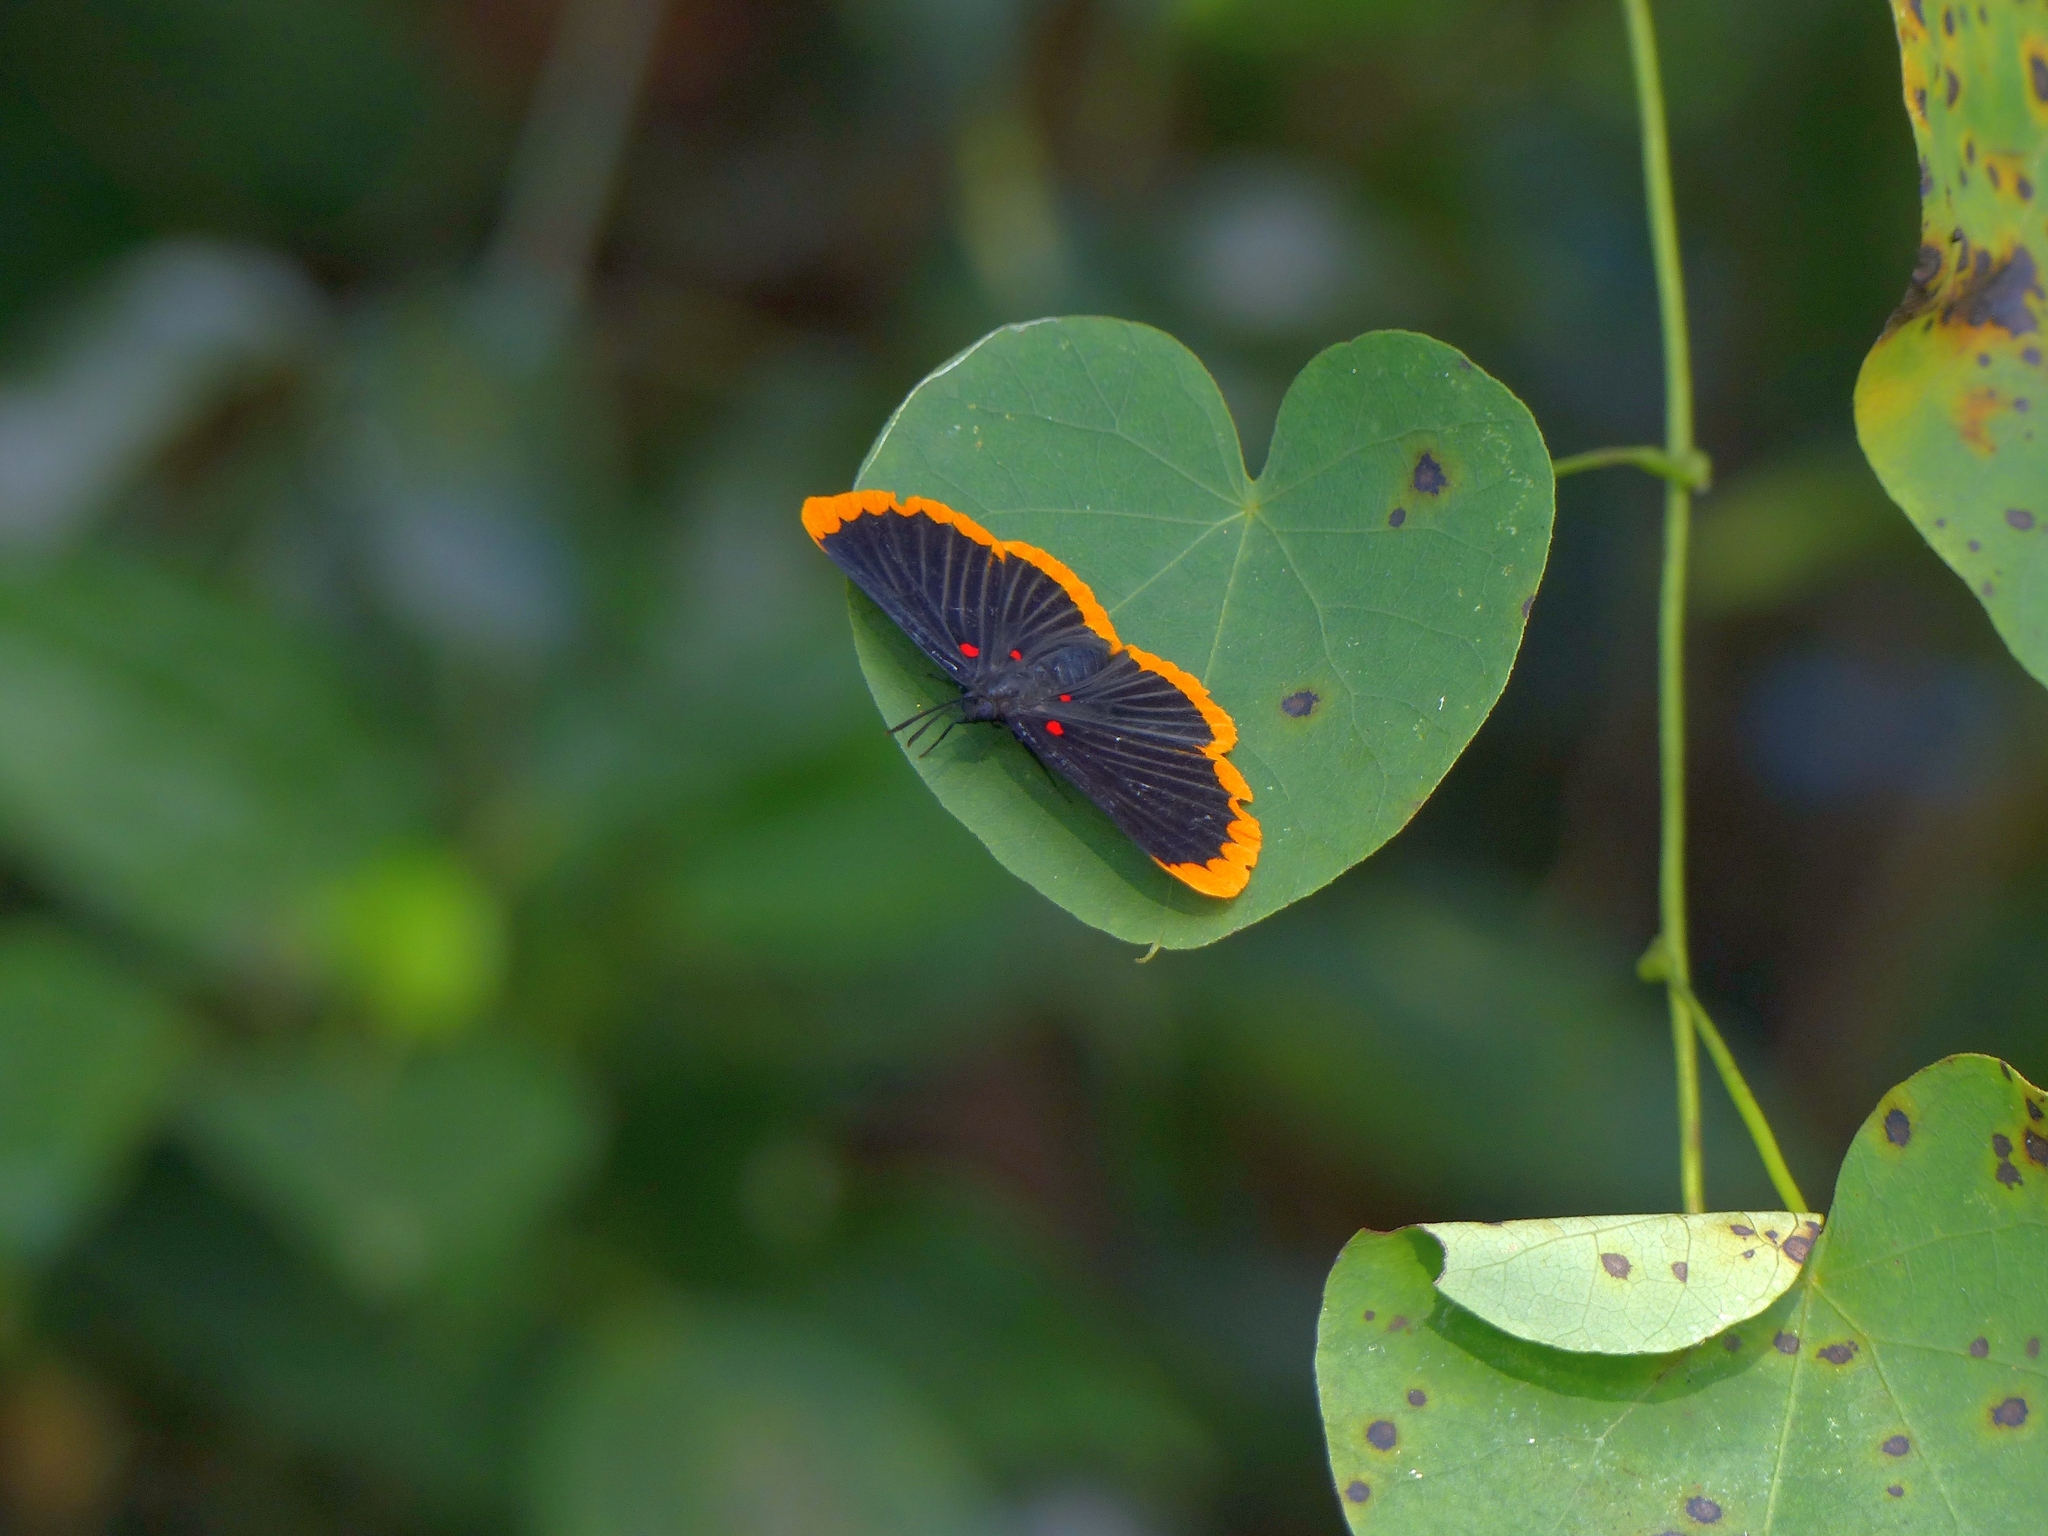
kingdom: Animalia
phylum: Arthropoda
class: Insecta
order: Lepidoptera
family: Lycaenidae
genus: Melanis
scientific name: Melanis smithiae
